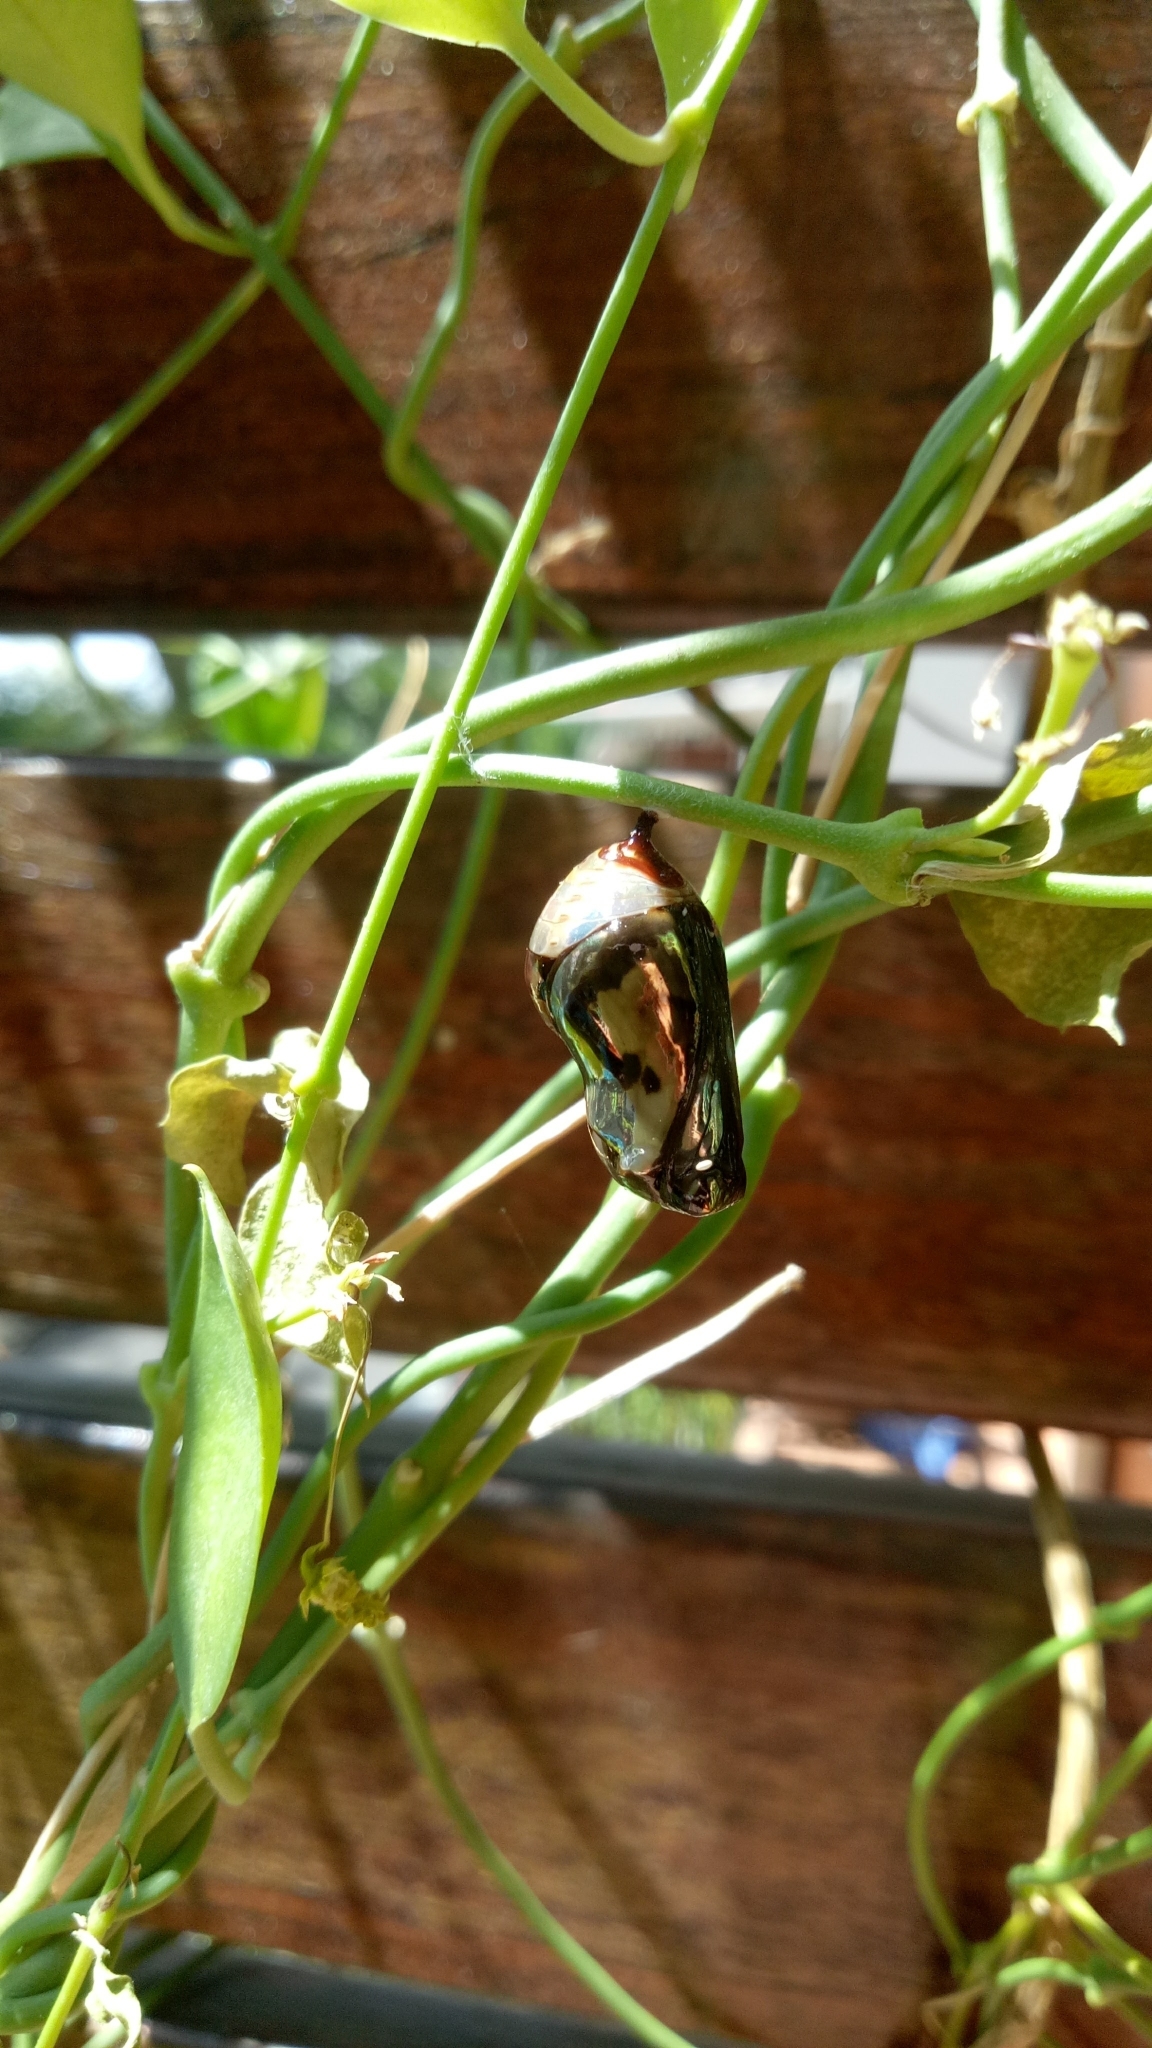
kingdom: Animalia
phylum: Arthropoda
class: Insecta
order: Lepidoptera
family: Nymphalidae
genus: Euploea
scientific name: Euploea core
